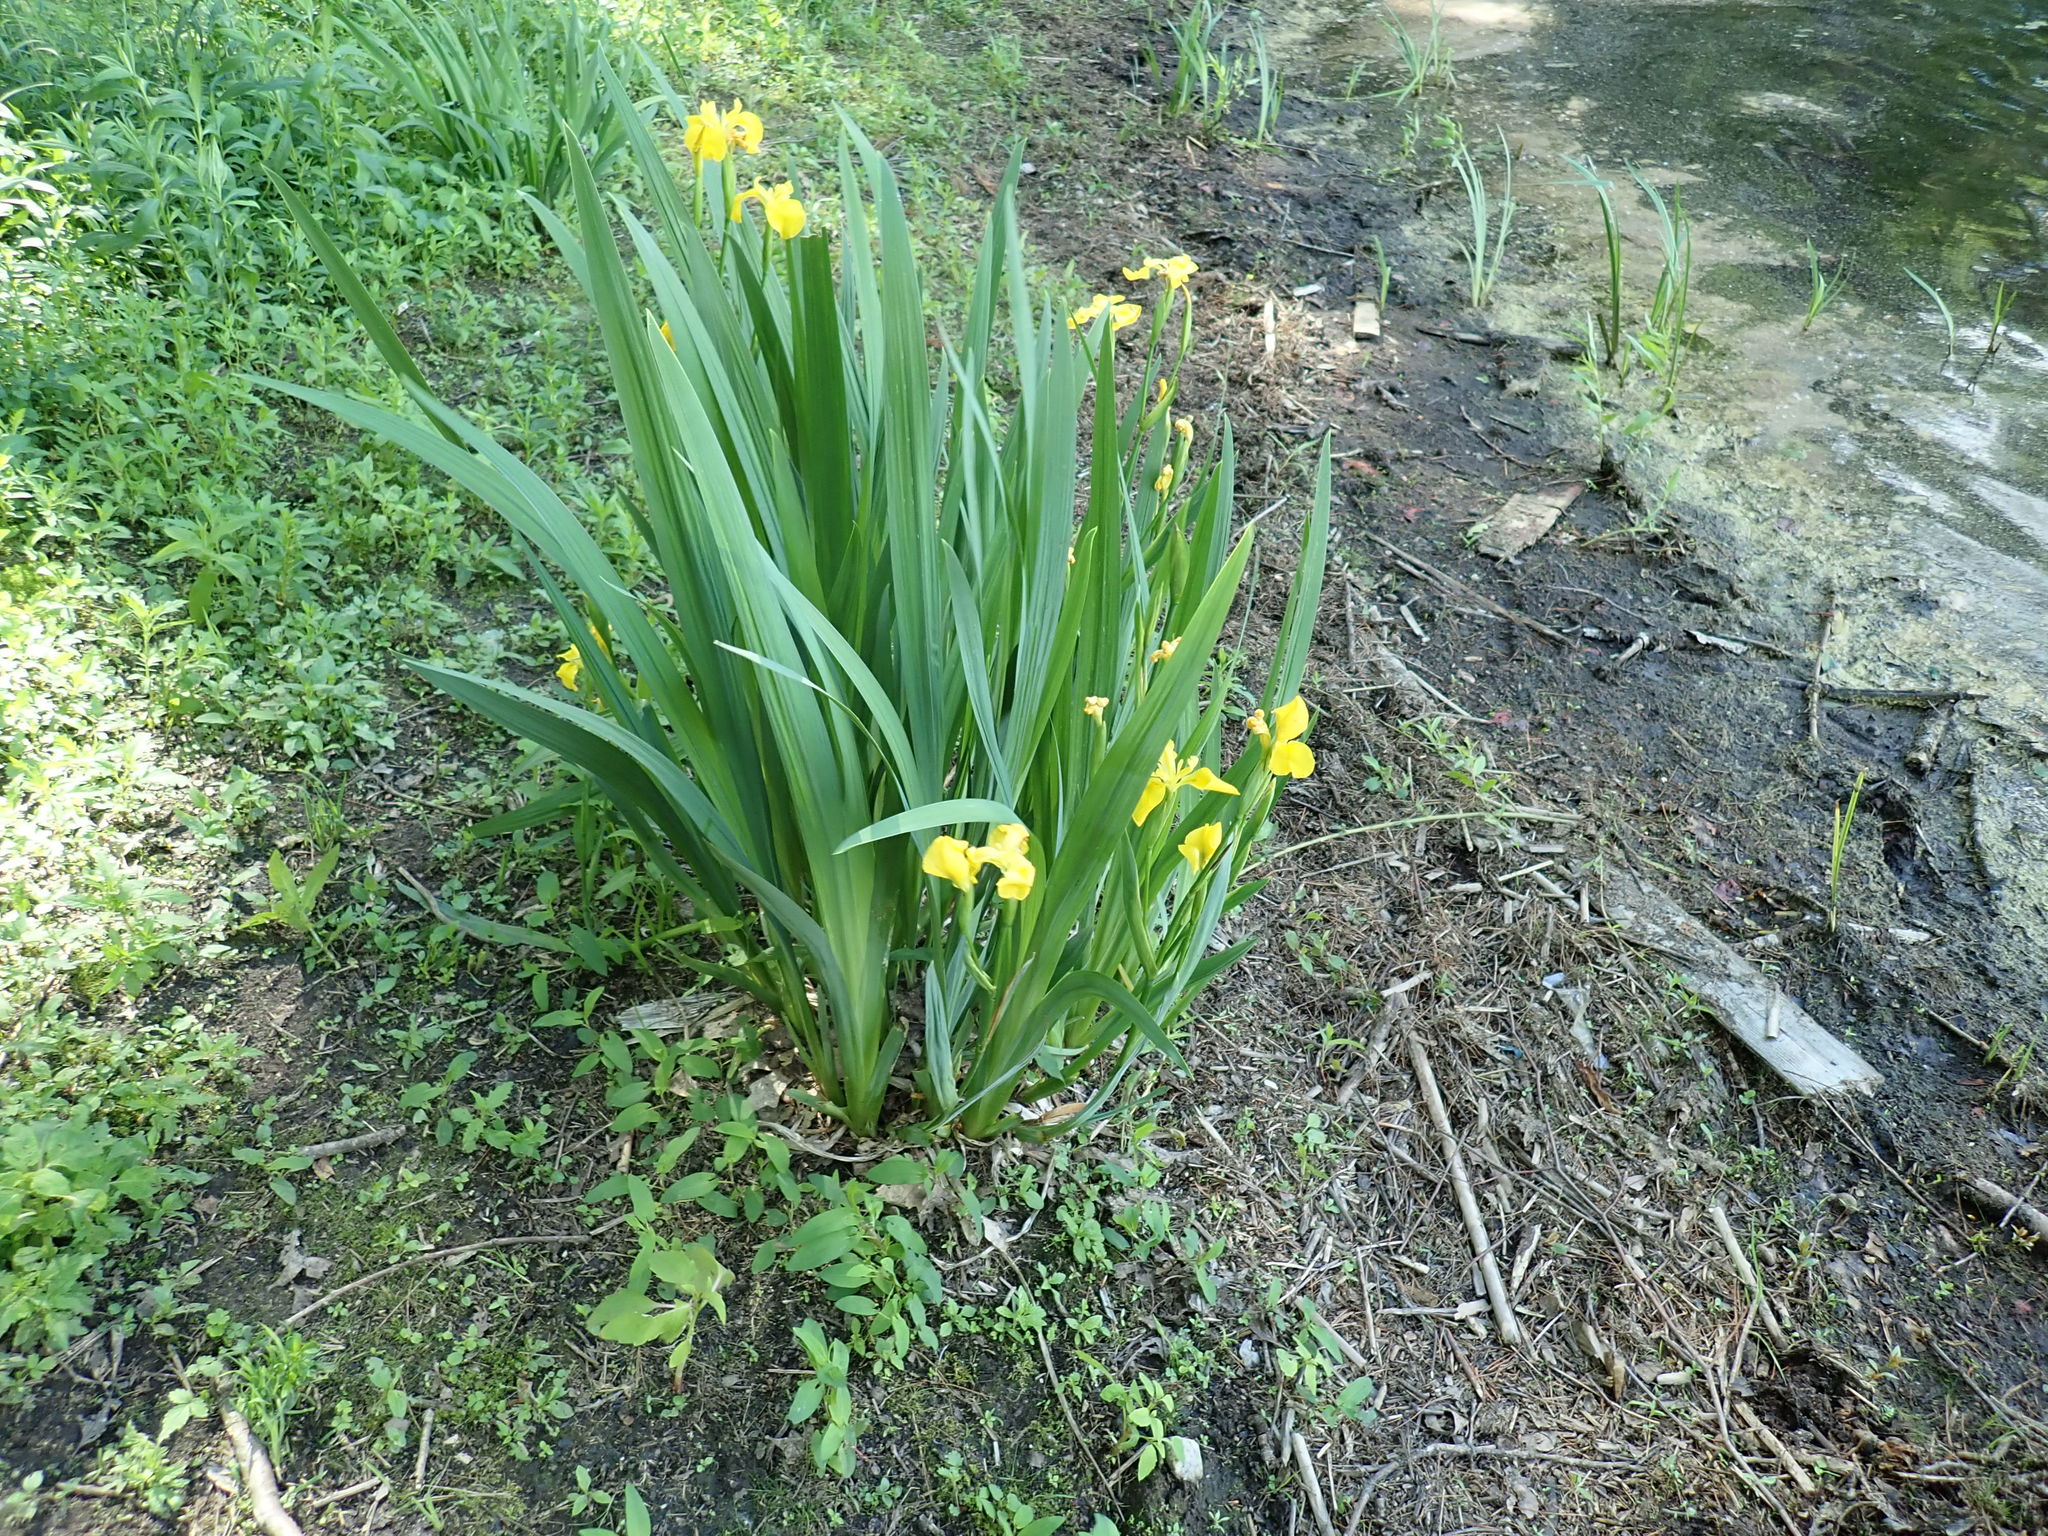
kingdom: Plantae
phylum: Tracheophyta
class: Liliopsida
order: Asparagales
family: Iridaceae
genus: Iris
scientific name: Iris pseudacorus
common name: Yellow flag
